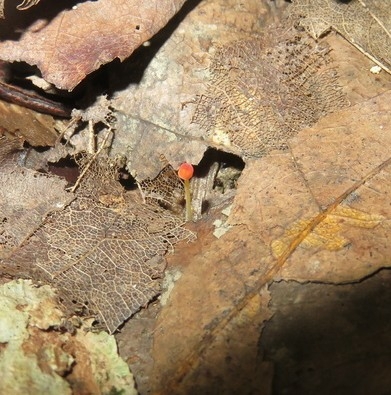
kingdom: Fungi
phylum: Basidiomycota
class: Agaricomycetes
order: Agaricales
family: Mycenaceae
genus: Mycena
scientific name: Mycena acicula
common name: Orange bonnet
